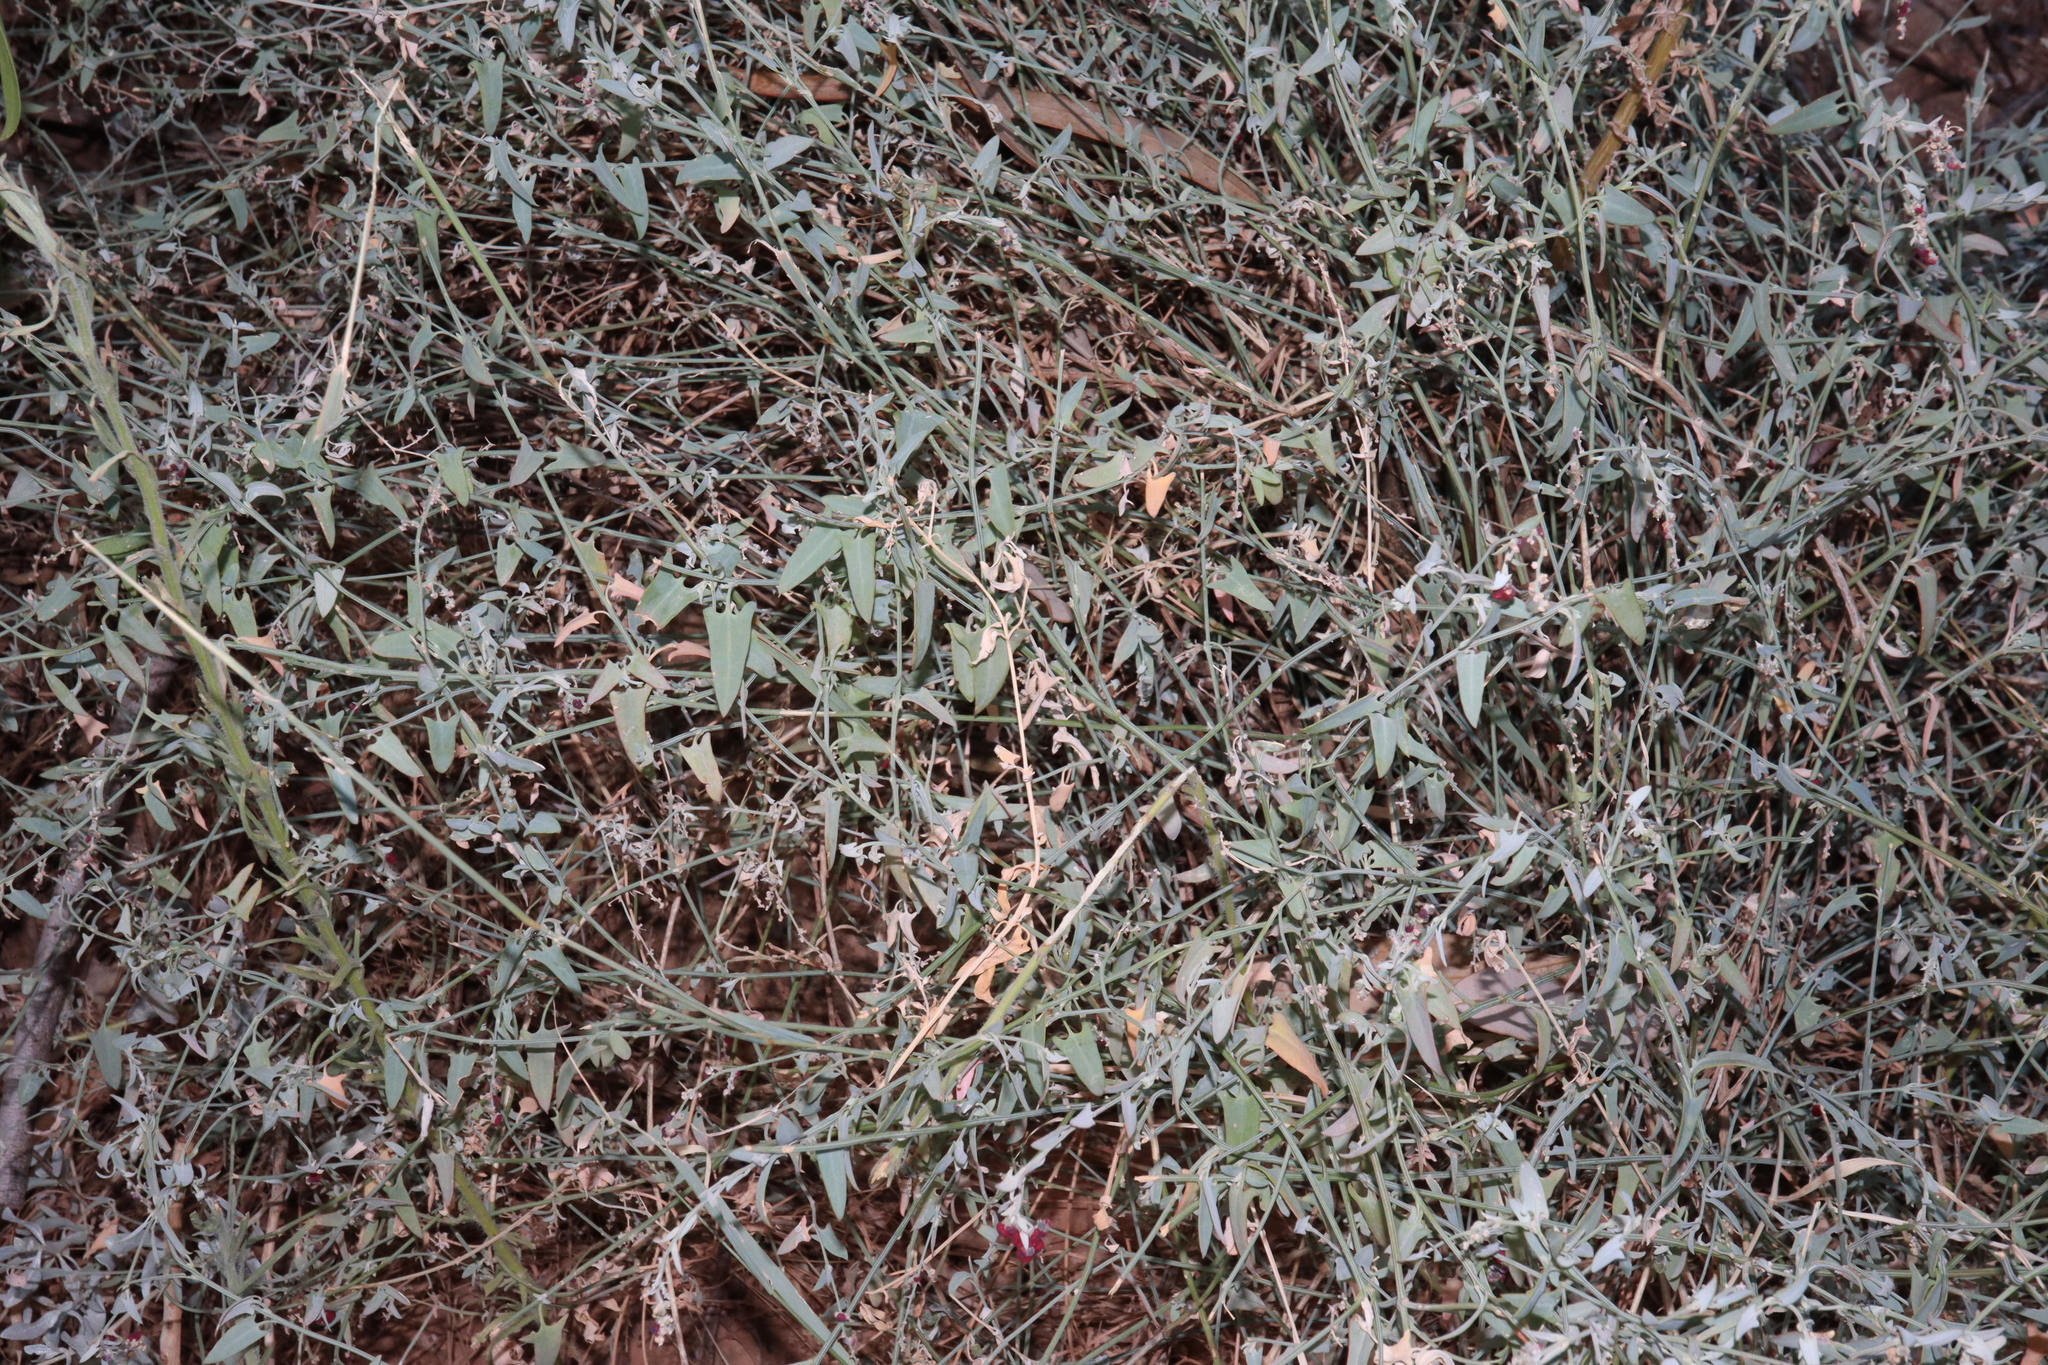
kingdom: Plantae
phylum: Tracheophyta
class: Magnoliopsida
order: Caryophyllales
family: Amaranthaceae
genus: Chenopodium
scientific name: Chenopodium nutans
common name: Climbing-saltbush
